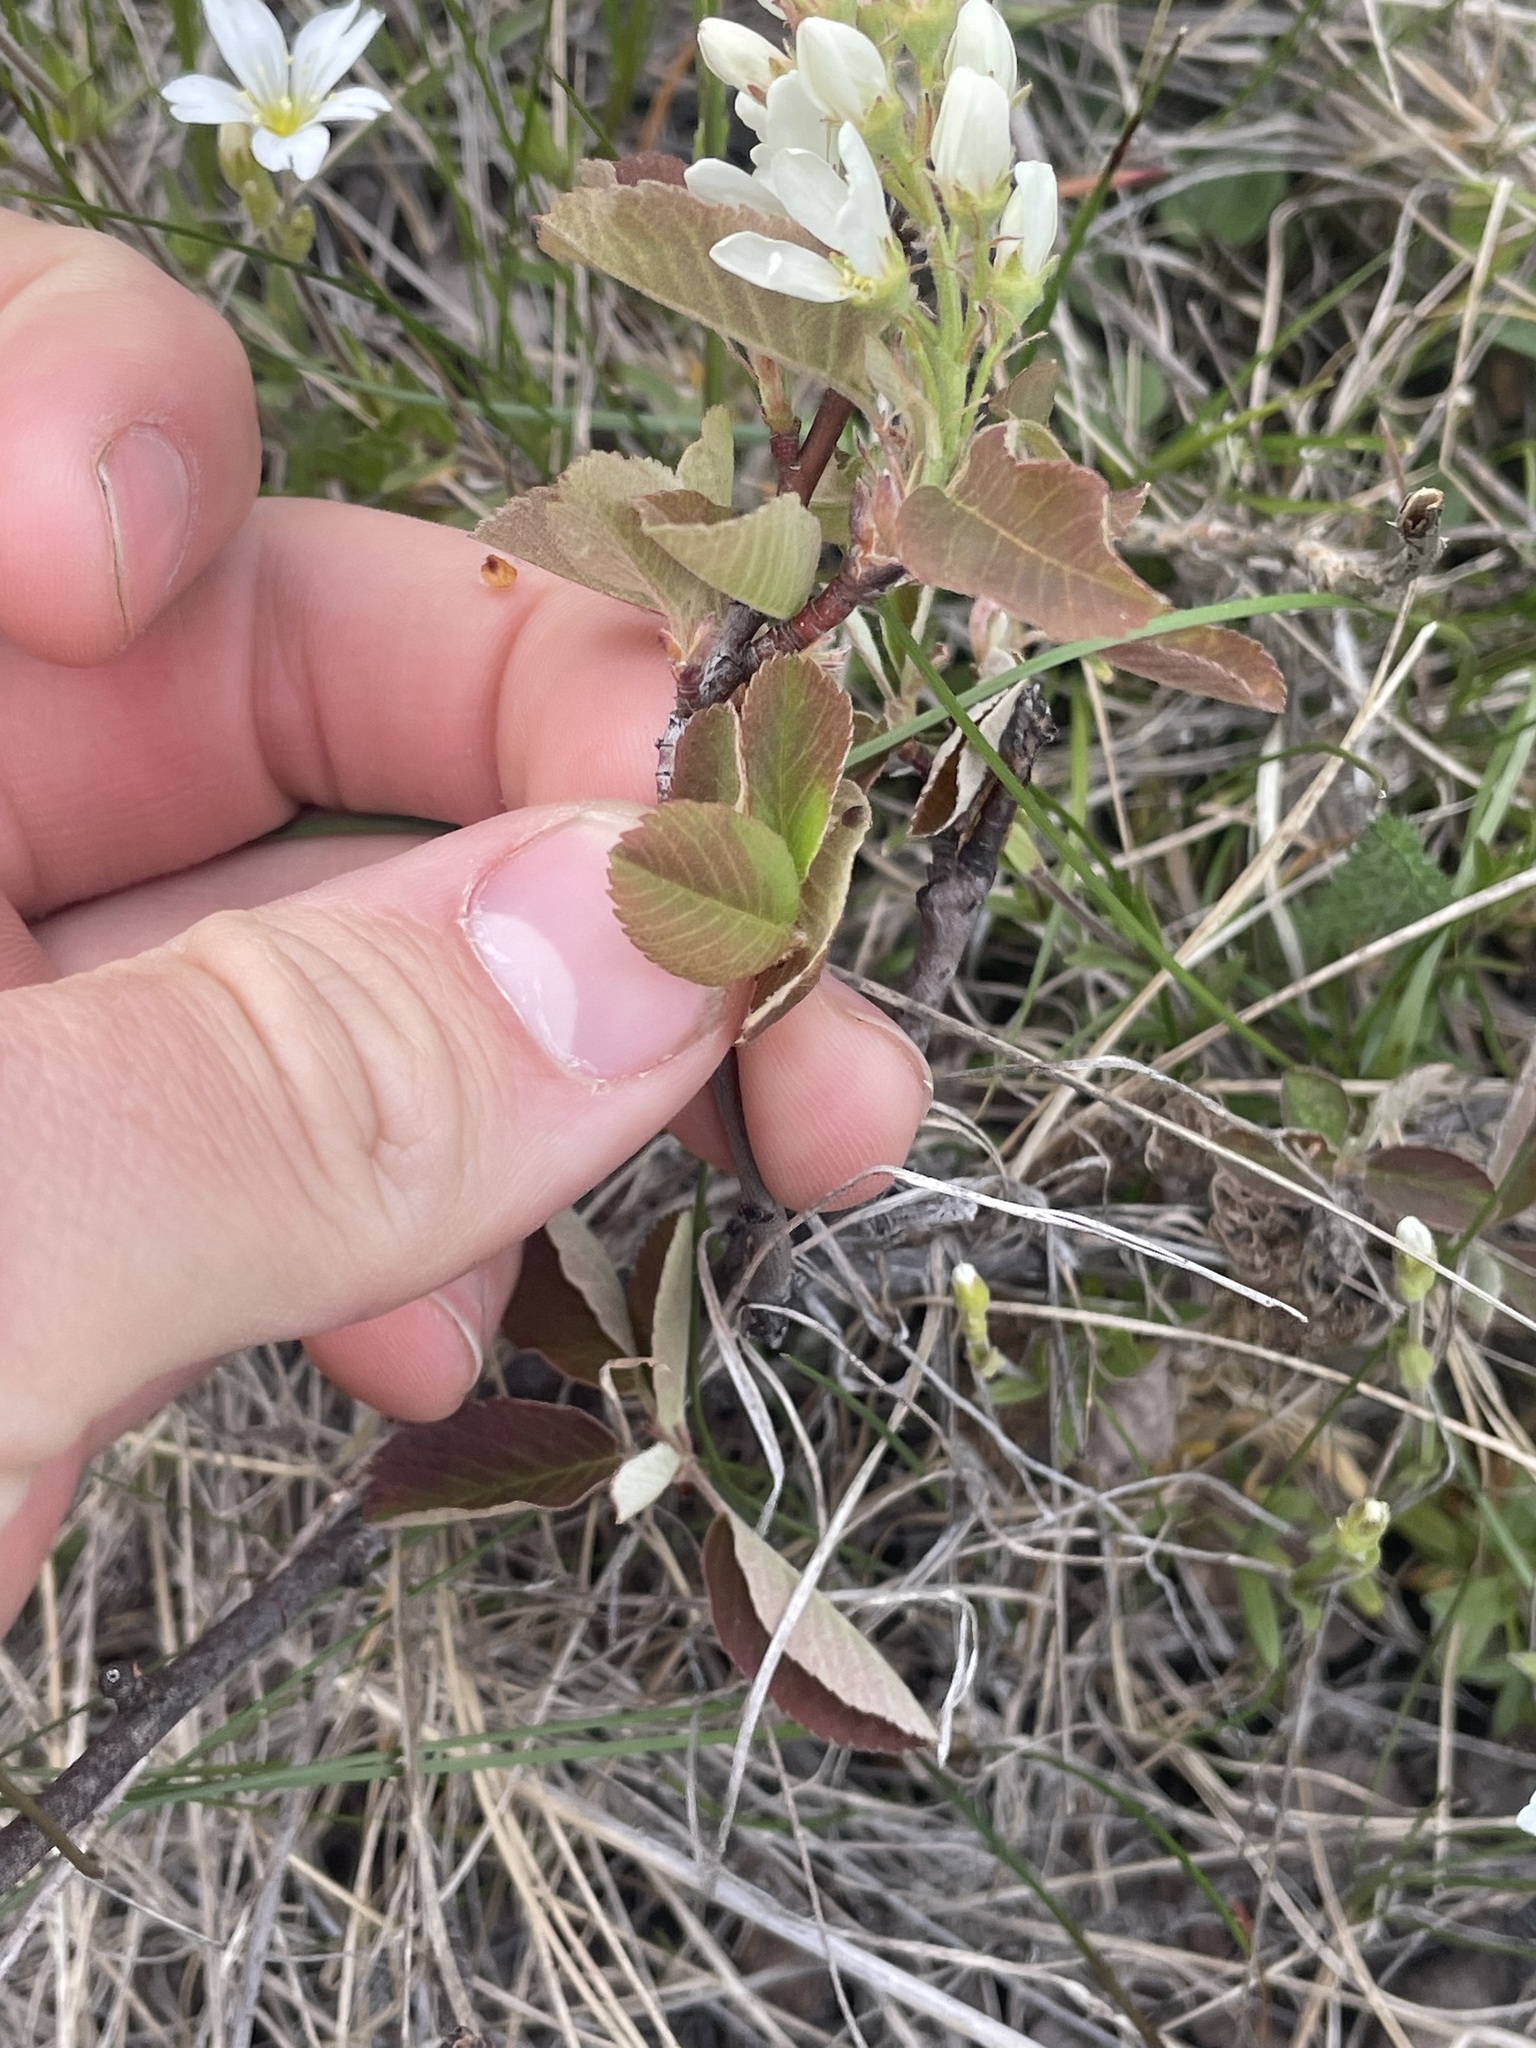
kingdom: Plantae
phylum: Tracheophyta
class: Magnoliopsida
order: Rosales
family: Rosaceae
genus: Amelanchier
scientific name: Amelanchier alnifolia
